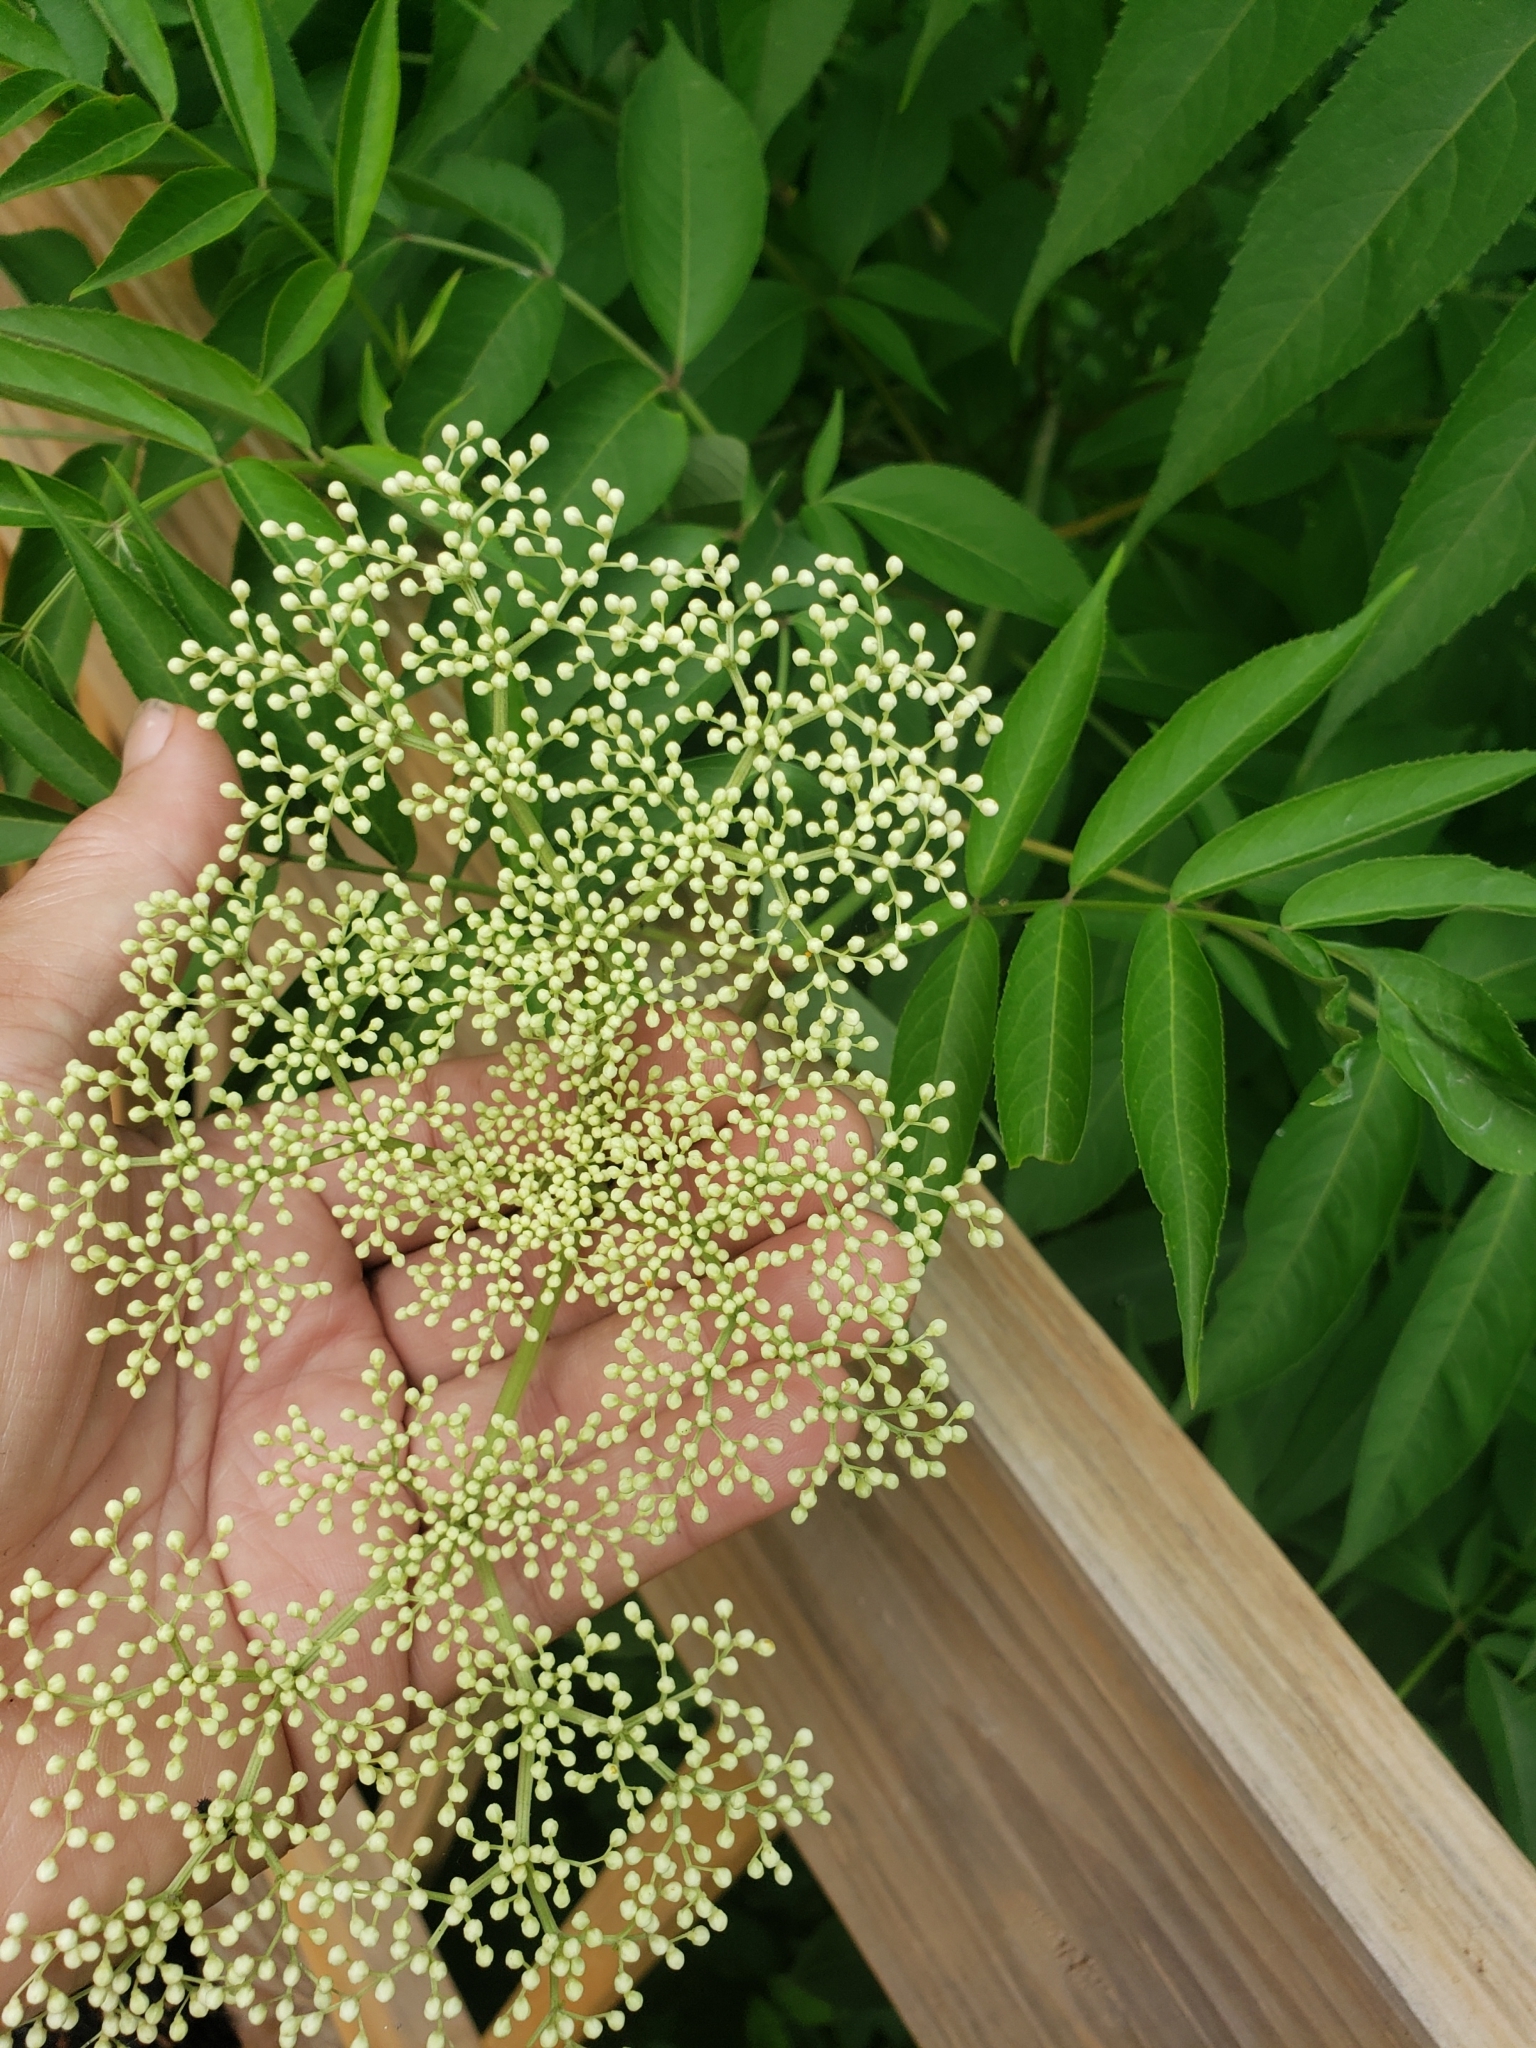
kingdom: Plantae
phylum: Tracheophyta
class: Magnoliopsida
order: Dipsacales
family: Viburnaceae
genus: Sambucus
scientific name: Sambucus canadensis
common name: American elder
